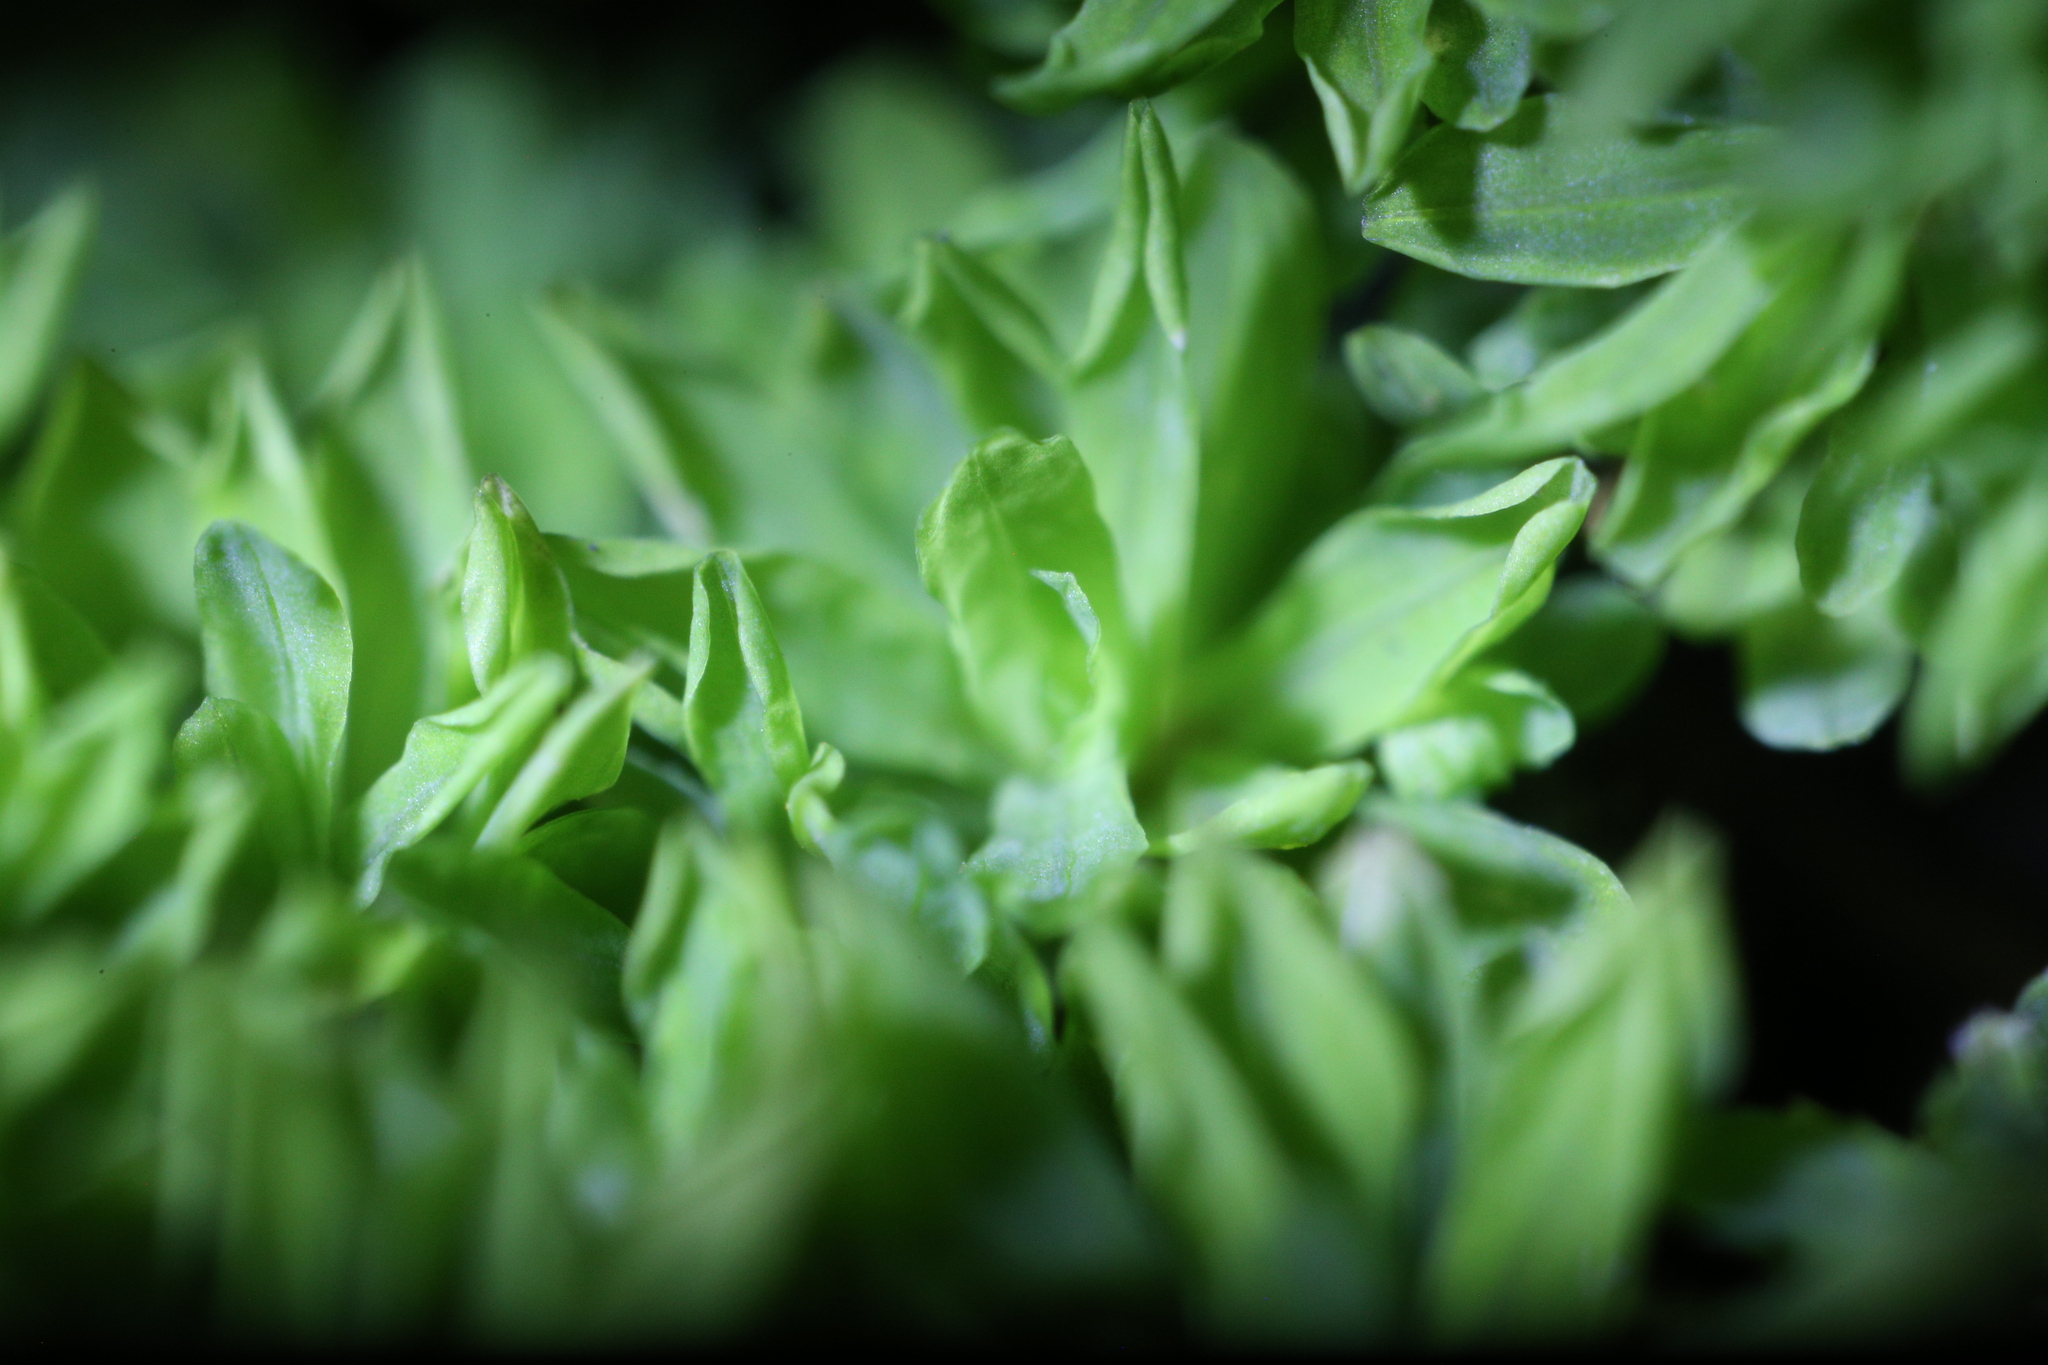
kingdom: Plantae
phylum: Bryophyta
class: Bryopsida
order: Pottiales
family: Pottiaceae
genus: Calymperastrum
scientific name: Calymperastrum latifolium
